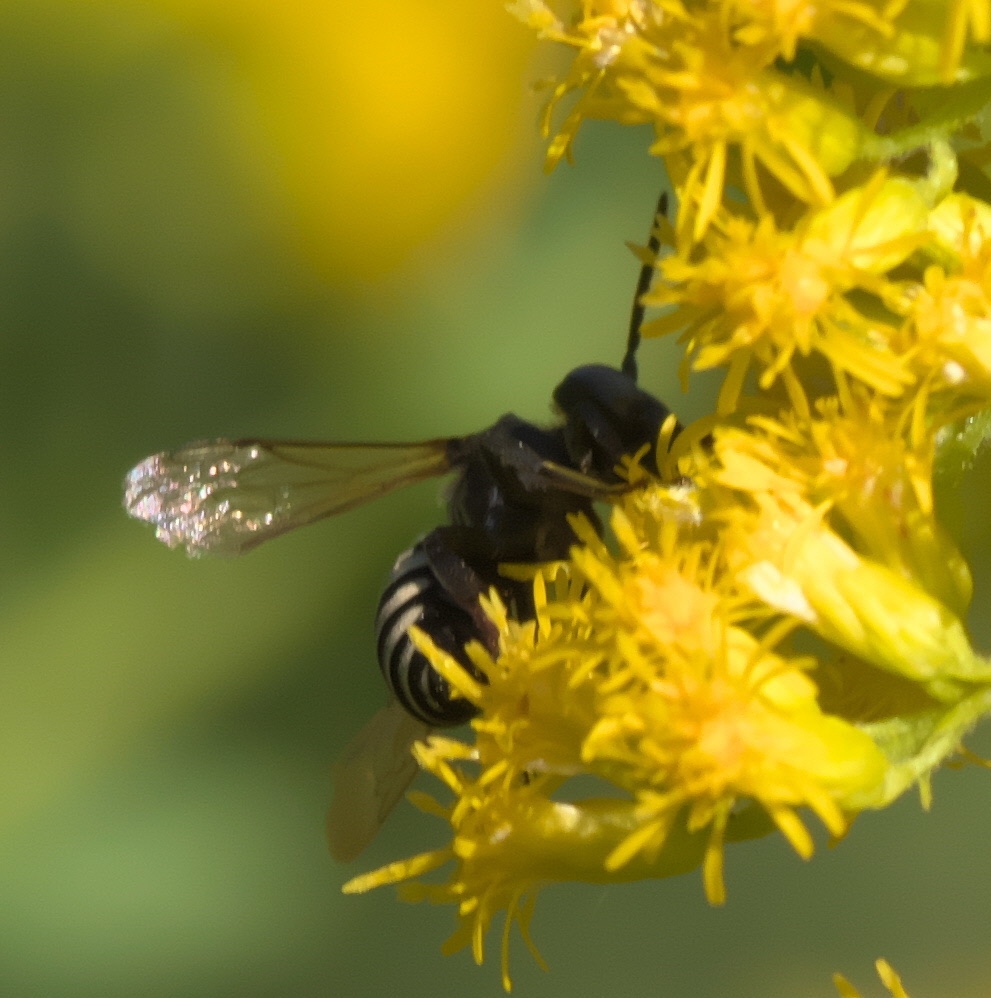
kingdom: Animalia
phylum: Arthropoda
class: Insecta
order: Hymenoptera
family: Apidae
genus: Triepeolus
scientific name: Triepeolus
